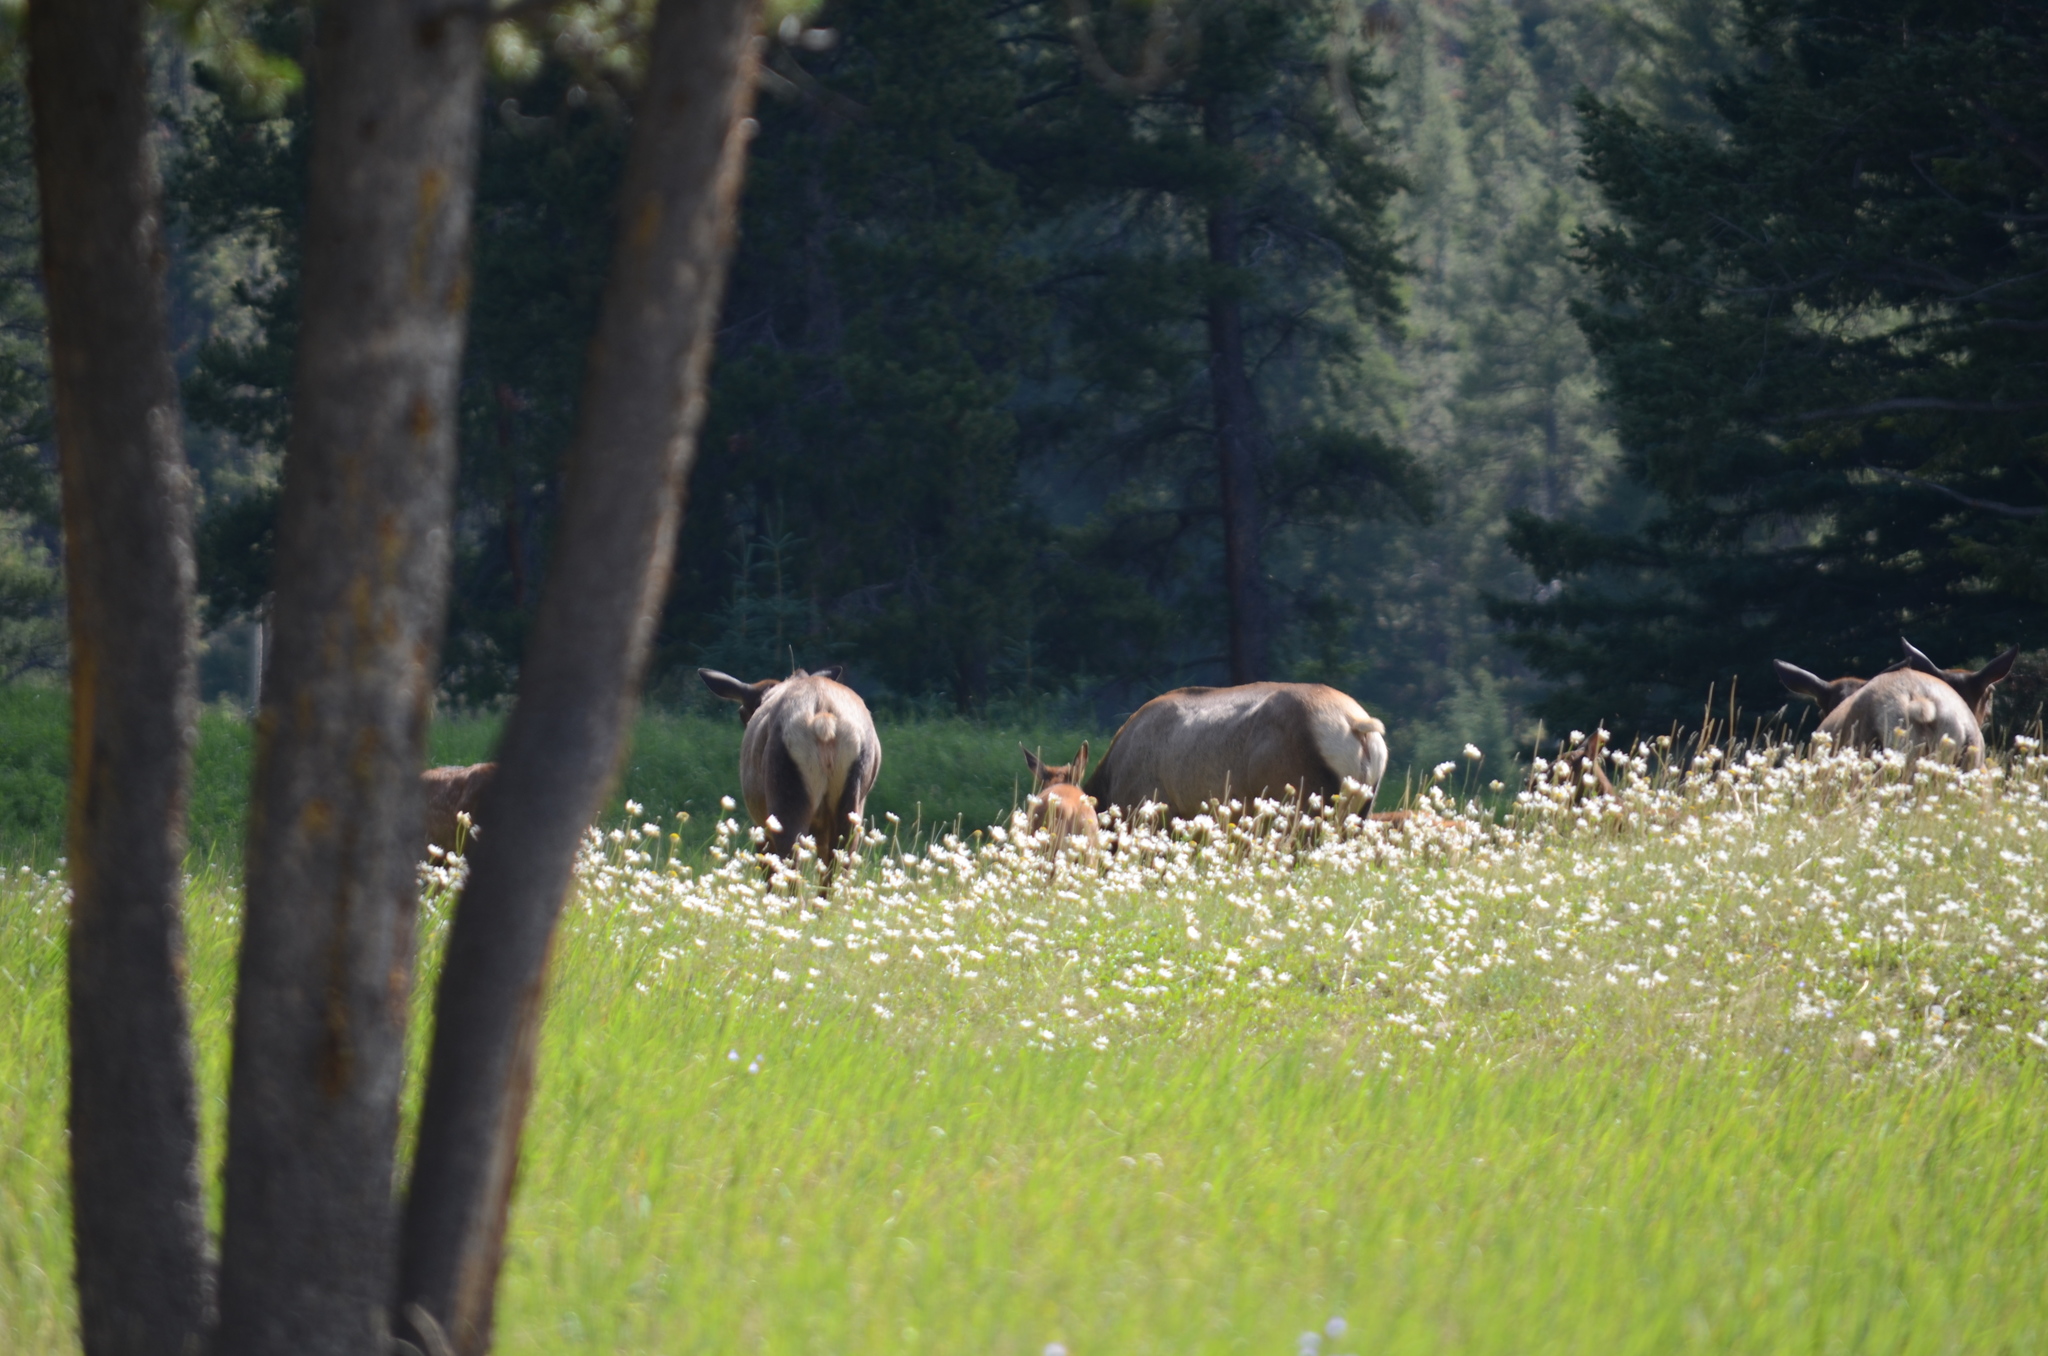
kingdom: Animalia
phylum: Chordata
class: Mammalia
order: Artiodactyla
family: Cervidae
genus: Cervus
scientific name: Cervus elaphus
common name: Red deer
